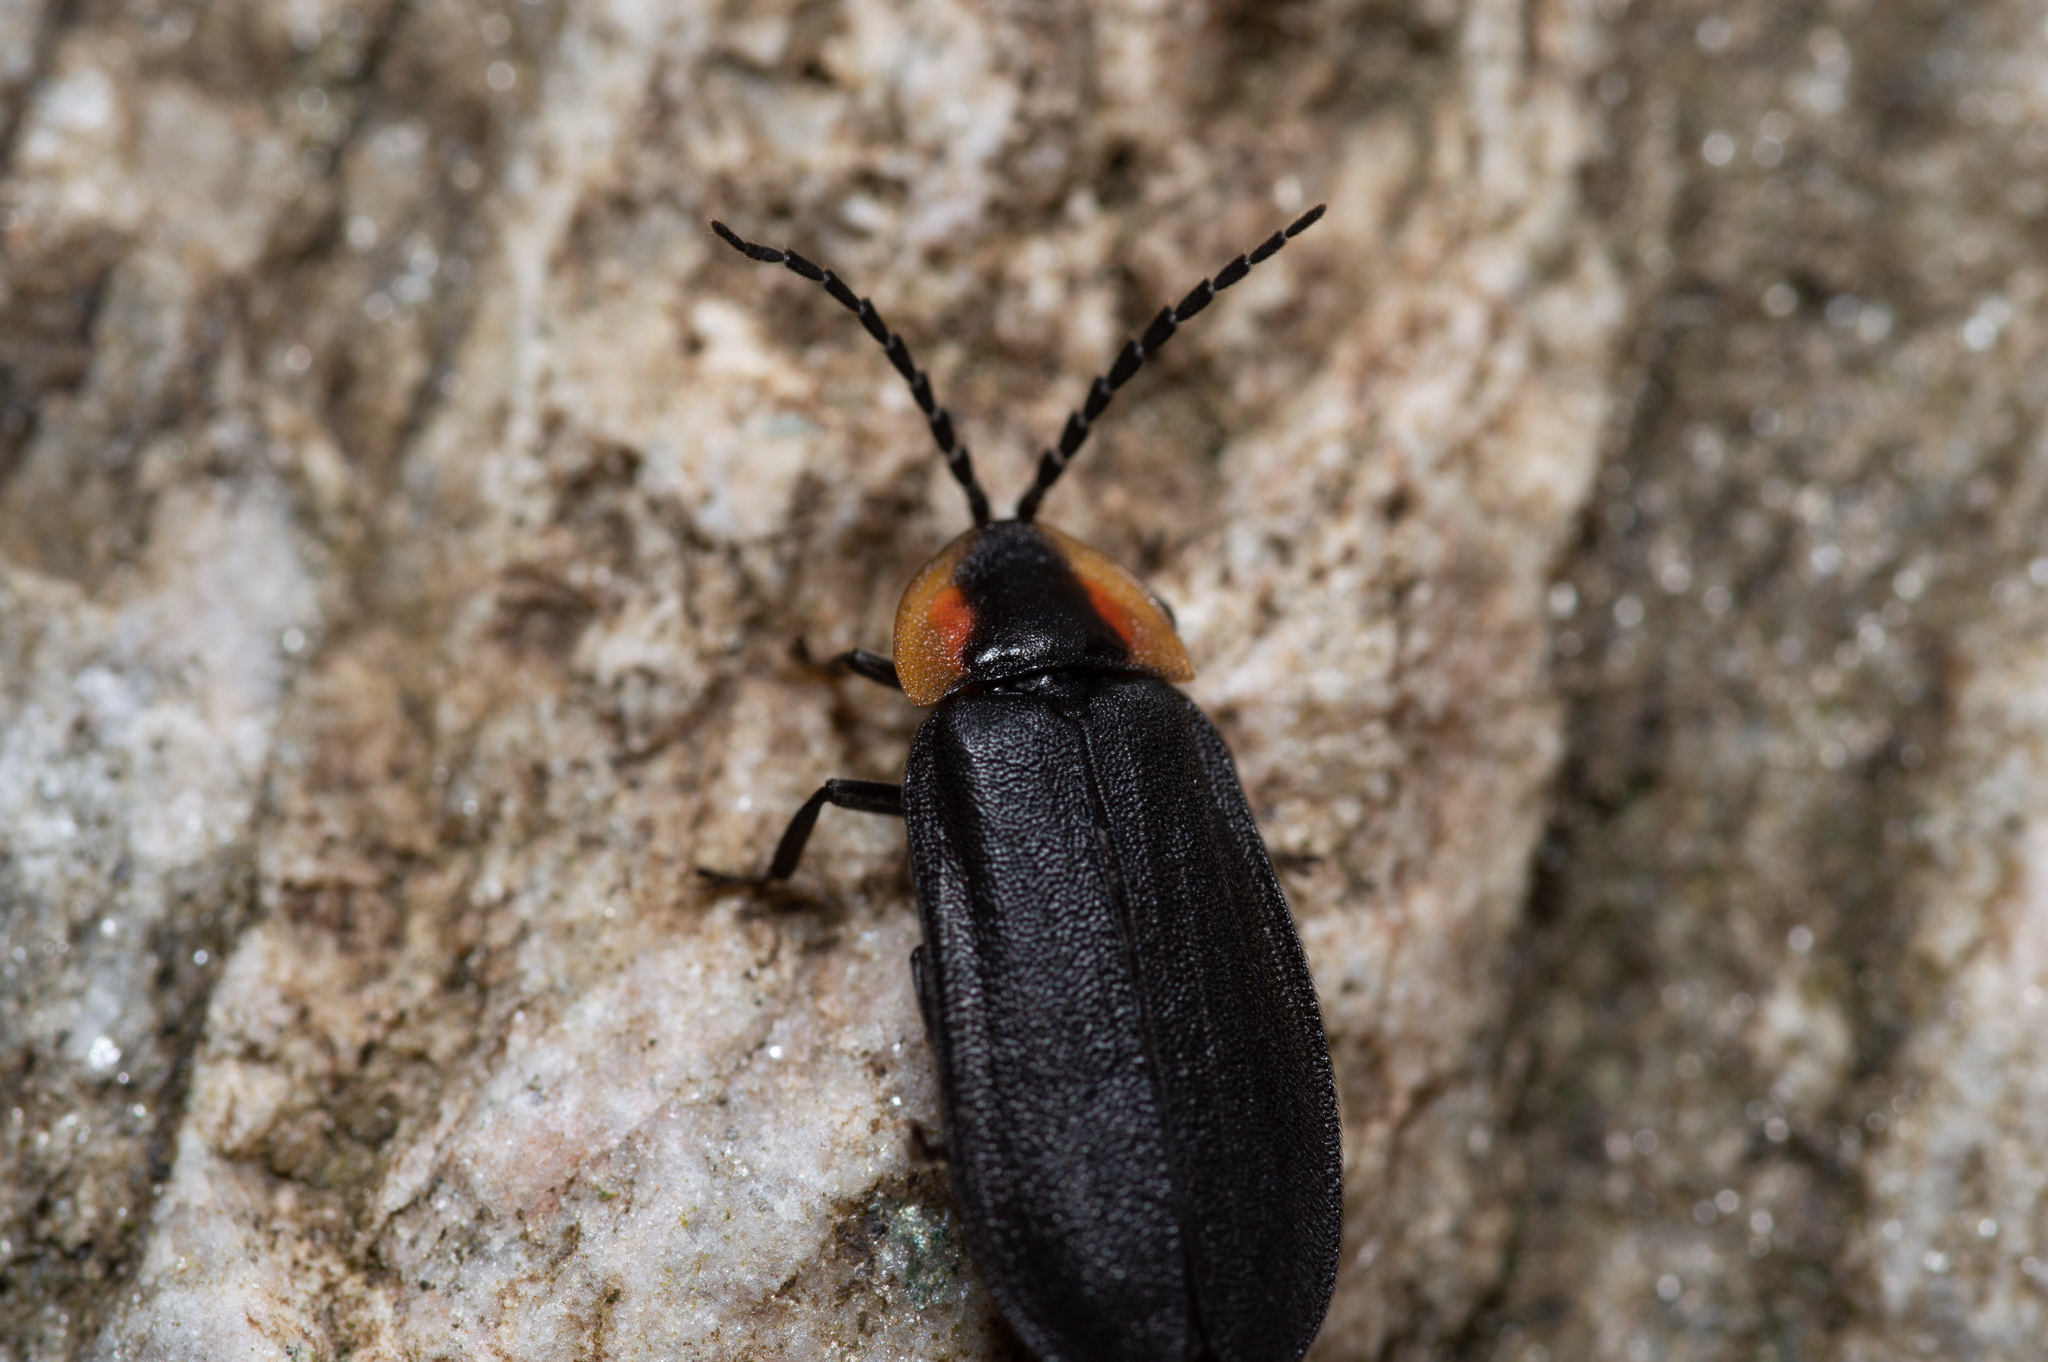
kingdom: Animalia
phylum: Arthropoda
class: Insecta
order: Coleoptera
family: Lampyridae
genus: Lucidota
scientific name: Lucidota atra
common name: Black firefly
